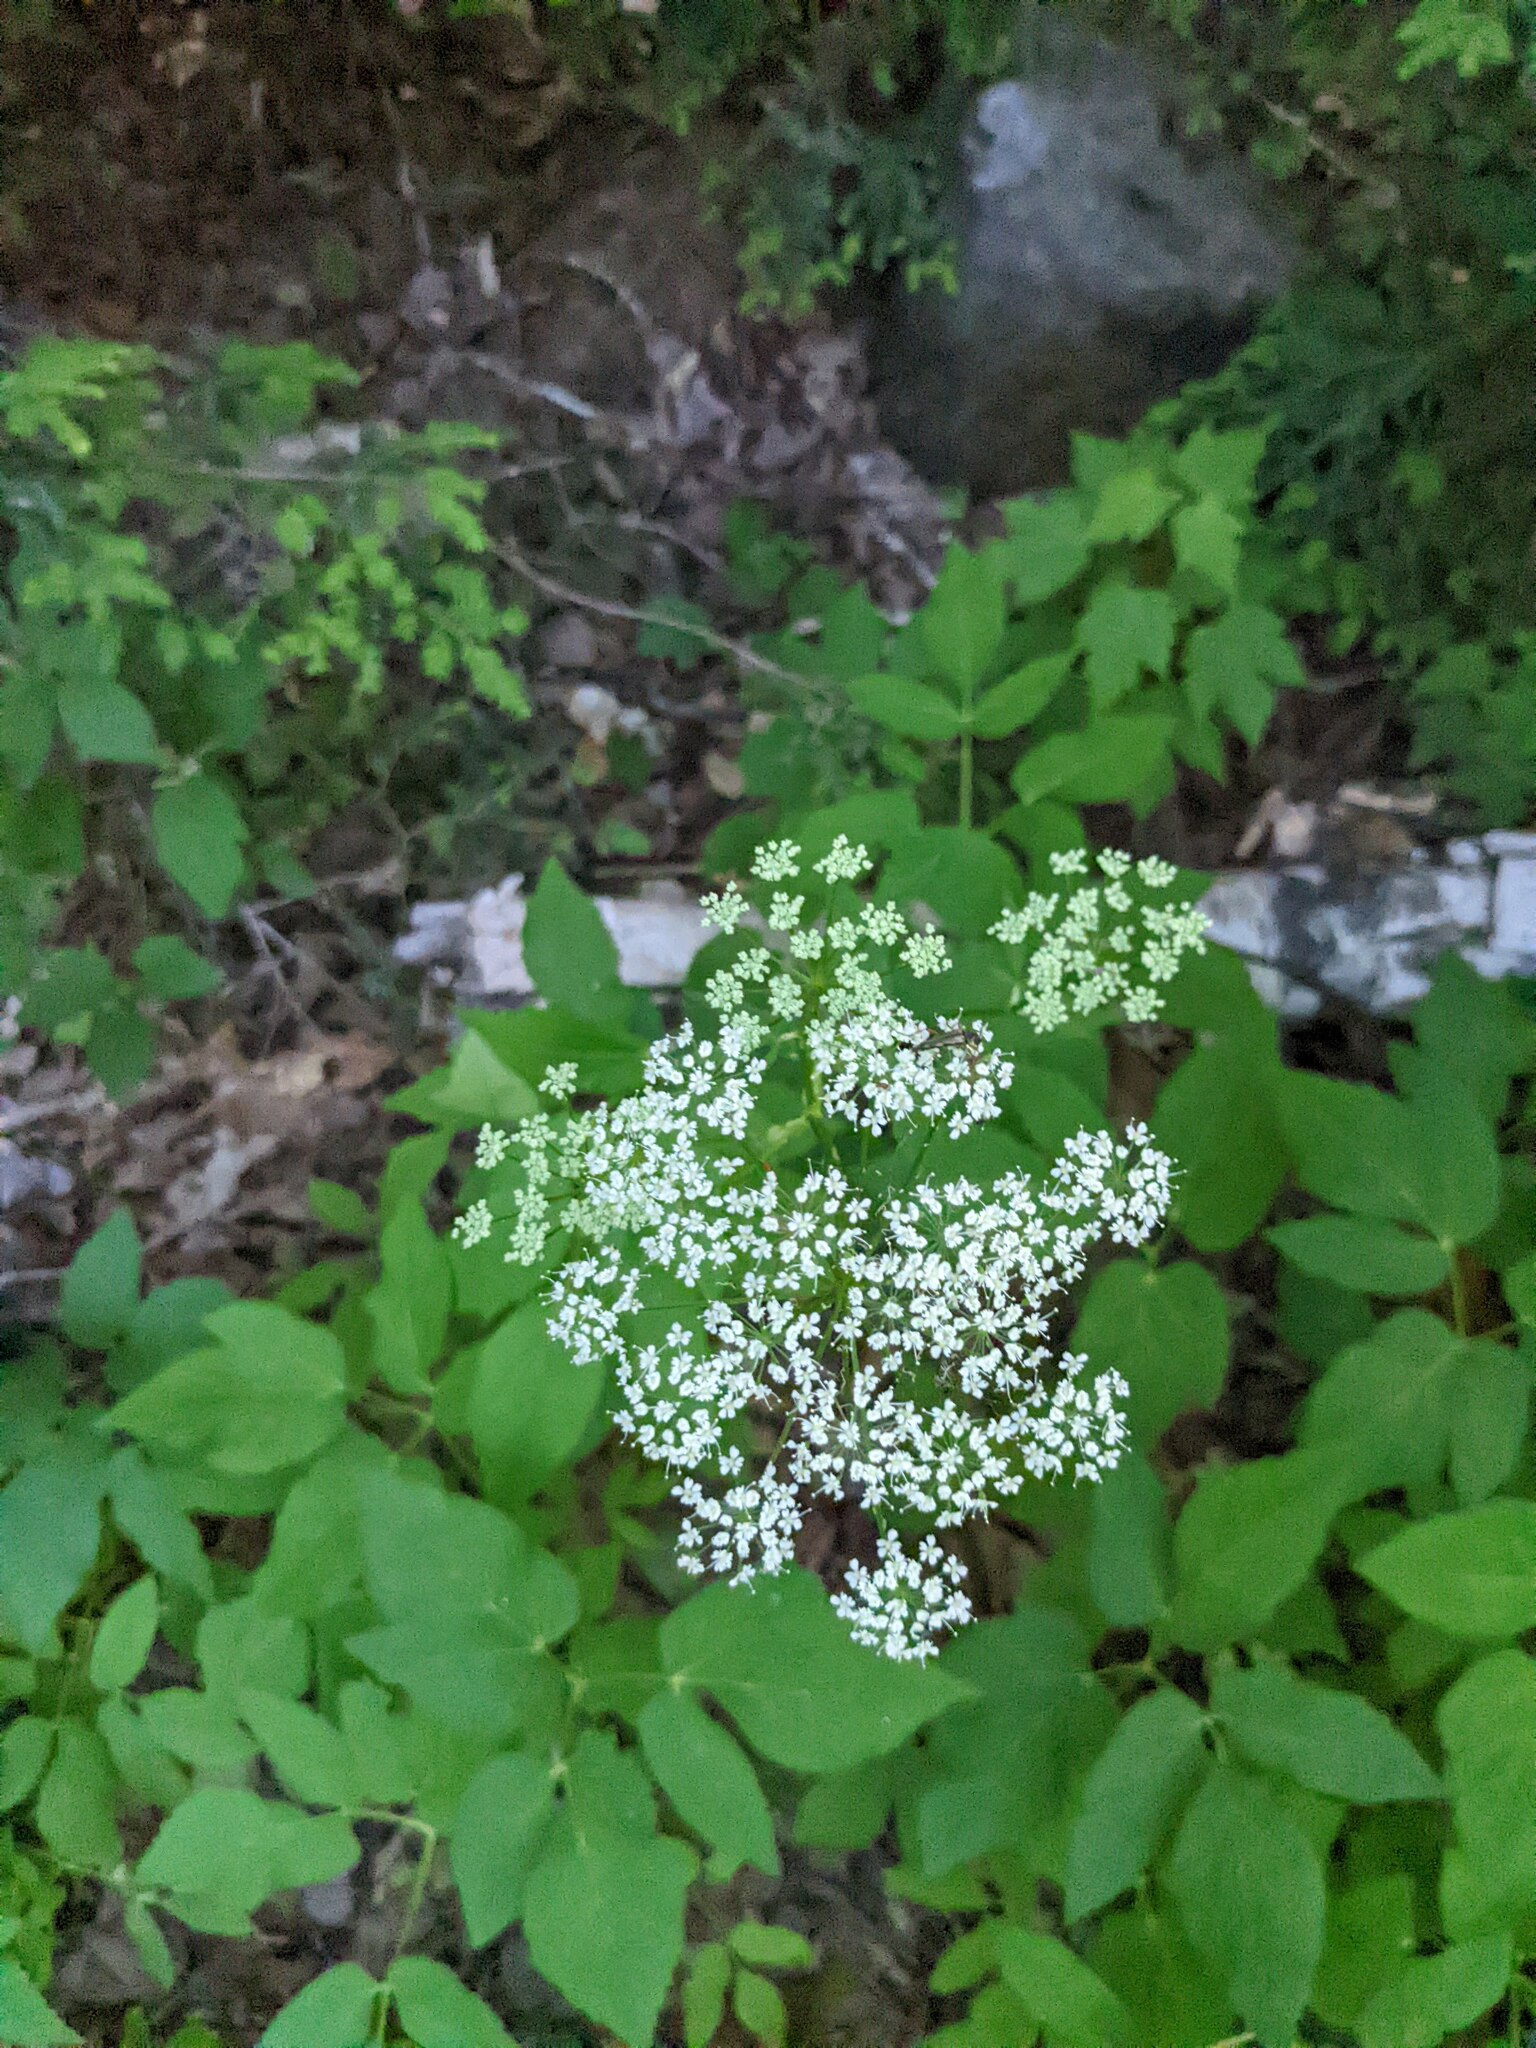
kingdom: Plantae
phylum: Tracheophyta
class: Magnoliopsida
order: Apiales
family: Apiaceae
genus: Aegopodium
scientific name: Aegopodium podagraria
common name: Ground-elder
